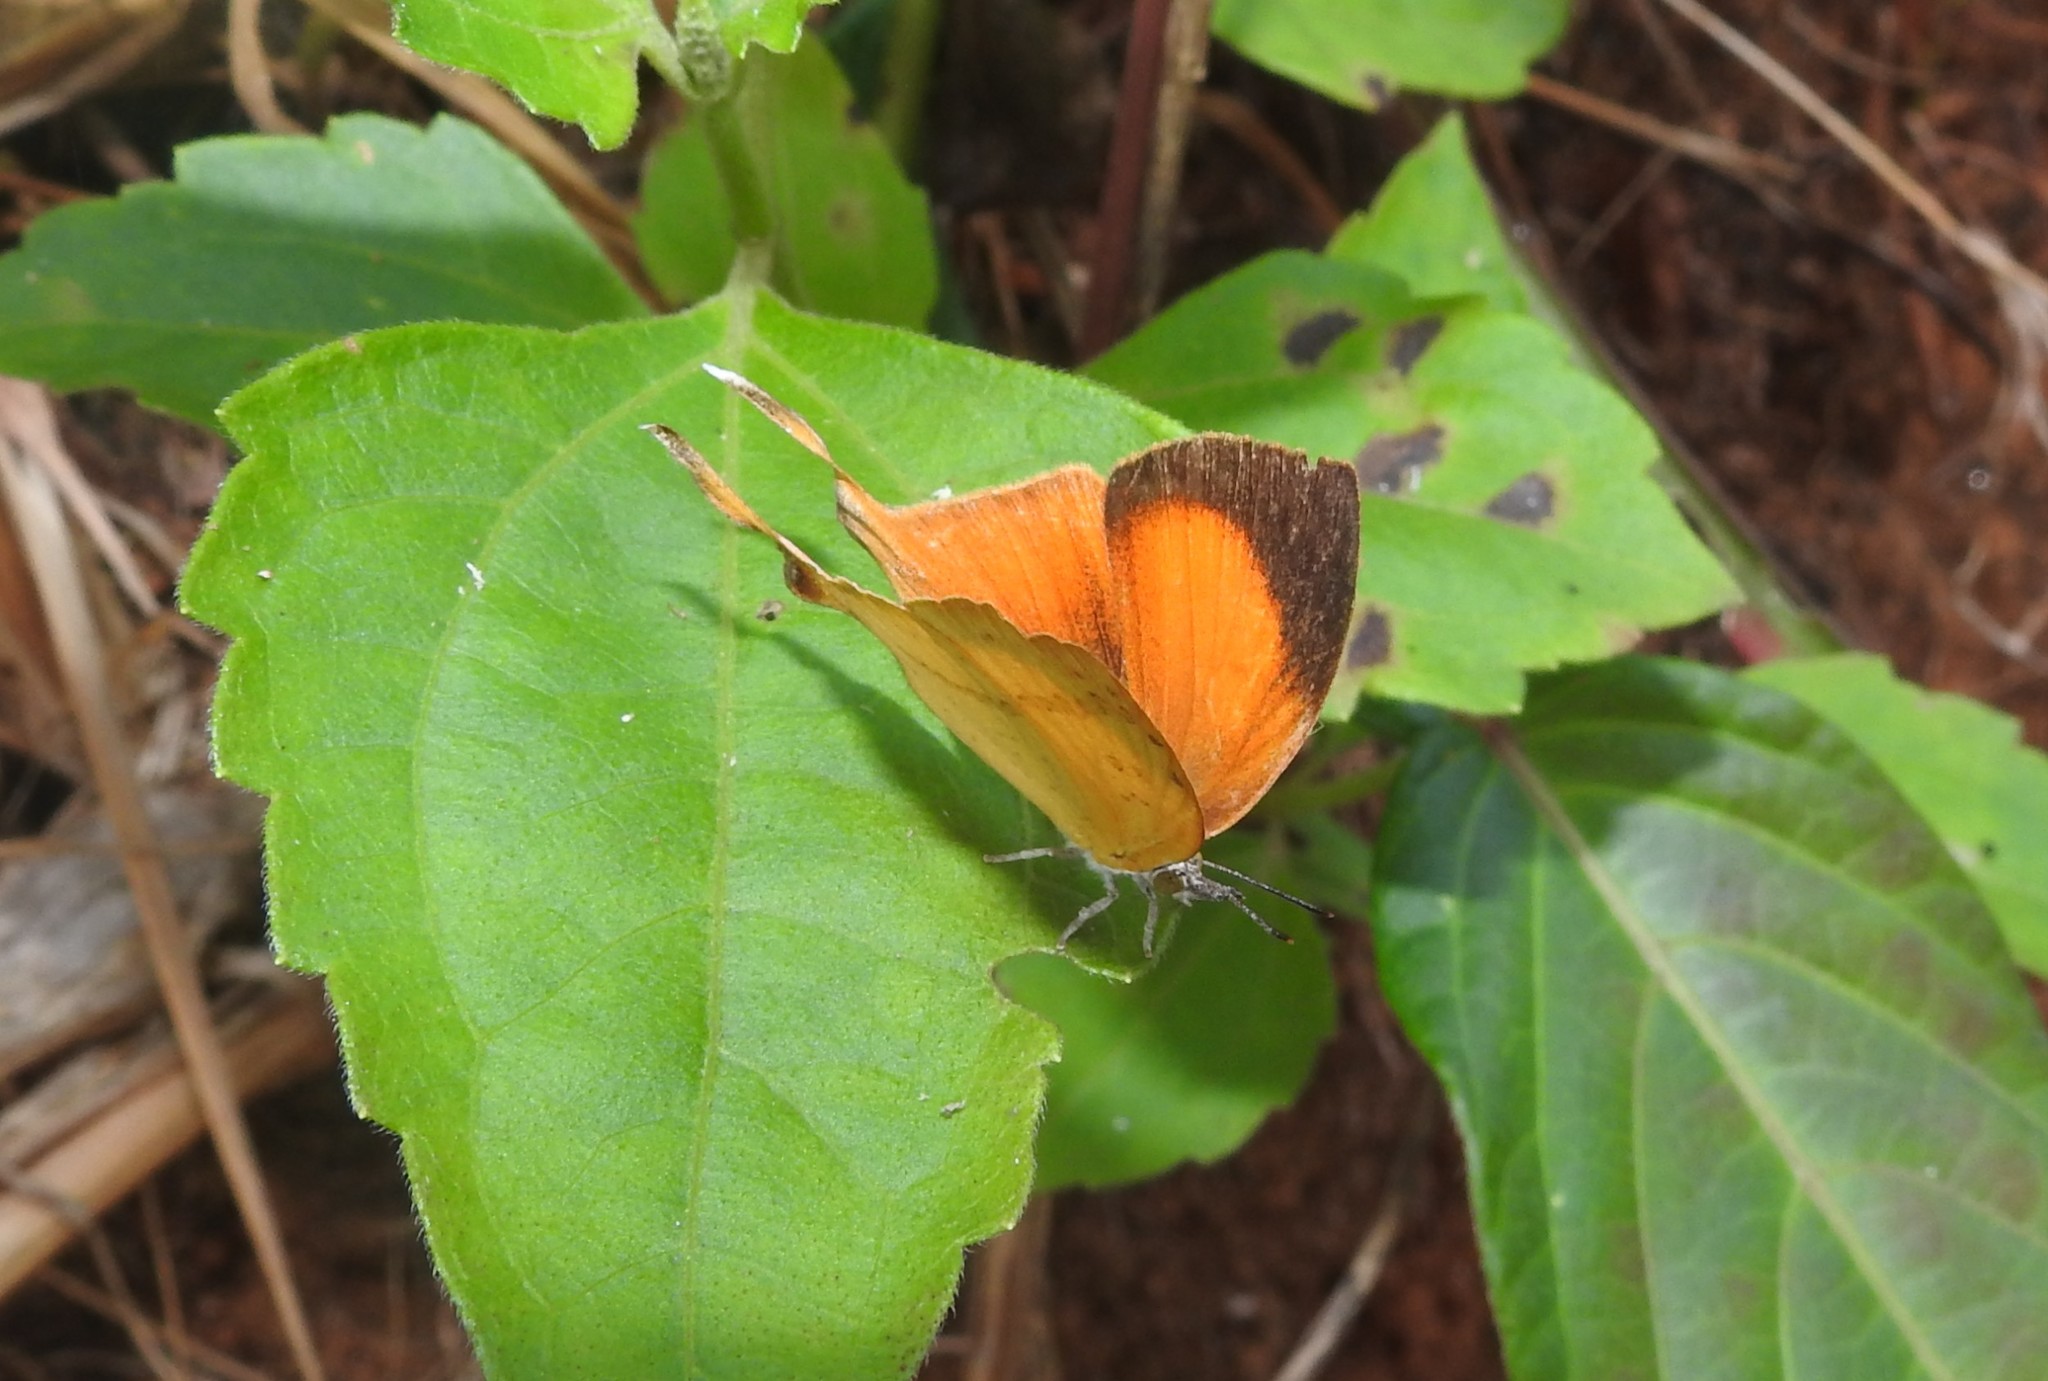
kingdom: Animalia
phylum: Arthropoda
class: Insecta
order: Lepidoptera
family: Lycaenidae
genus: Loxura
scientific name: Loxura atymnus
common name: Common yamfly
